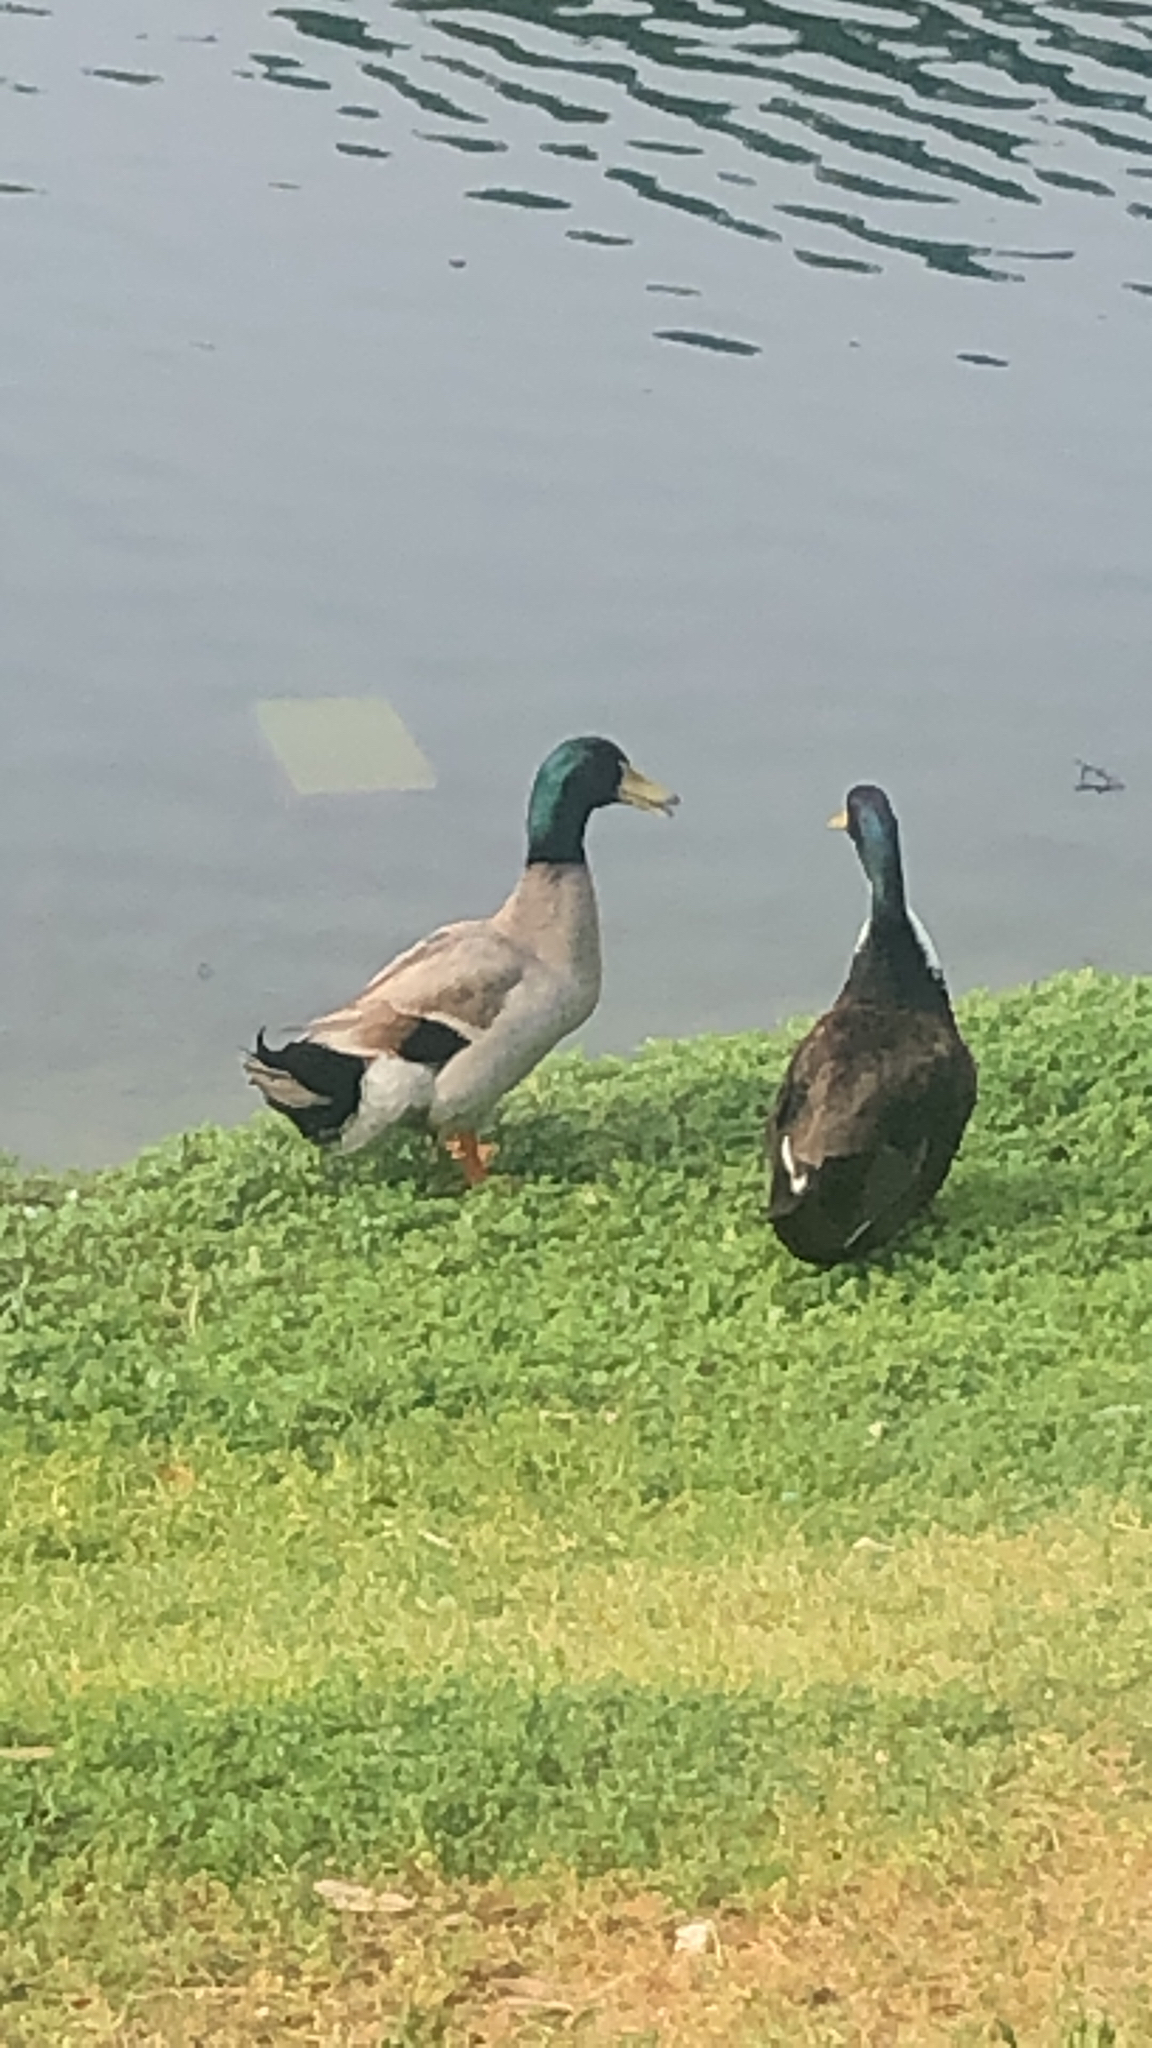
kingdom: Animalia
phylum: Chordata
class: Aves
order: Anseriformes
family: Anatidae
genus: Anas
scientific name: Anas platyrhynchos
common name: Mallard
